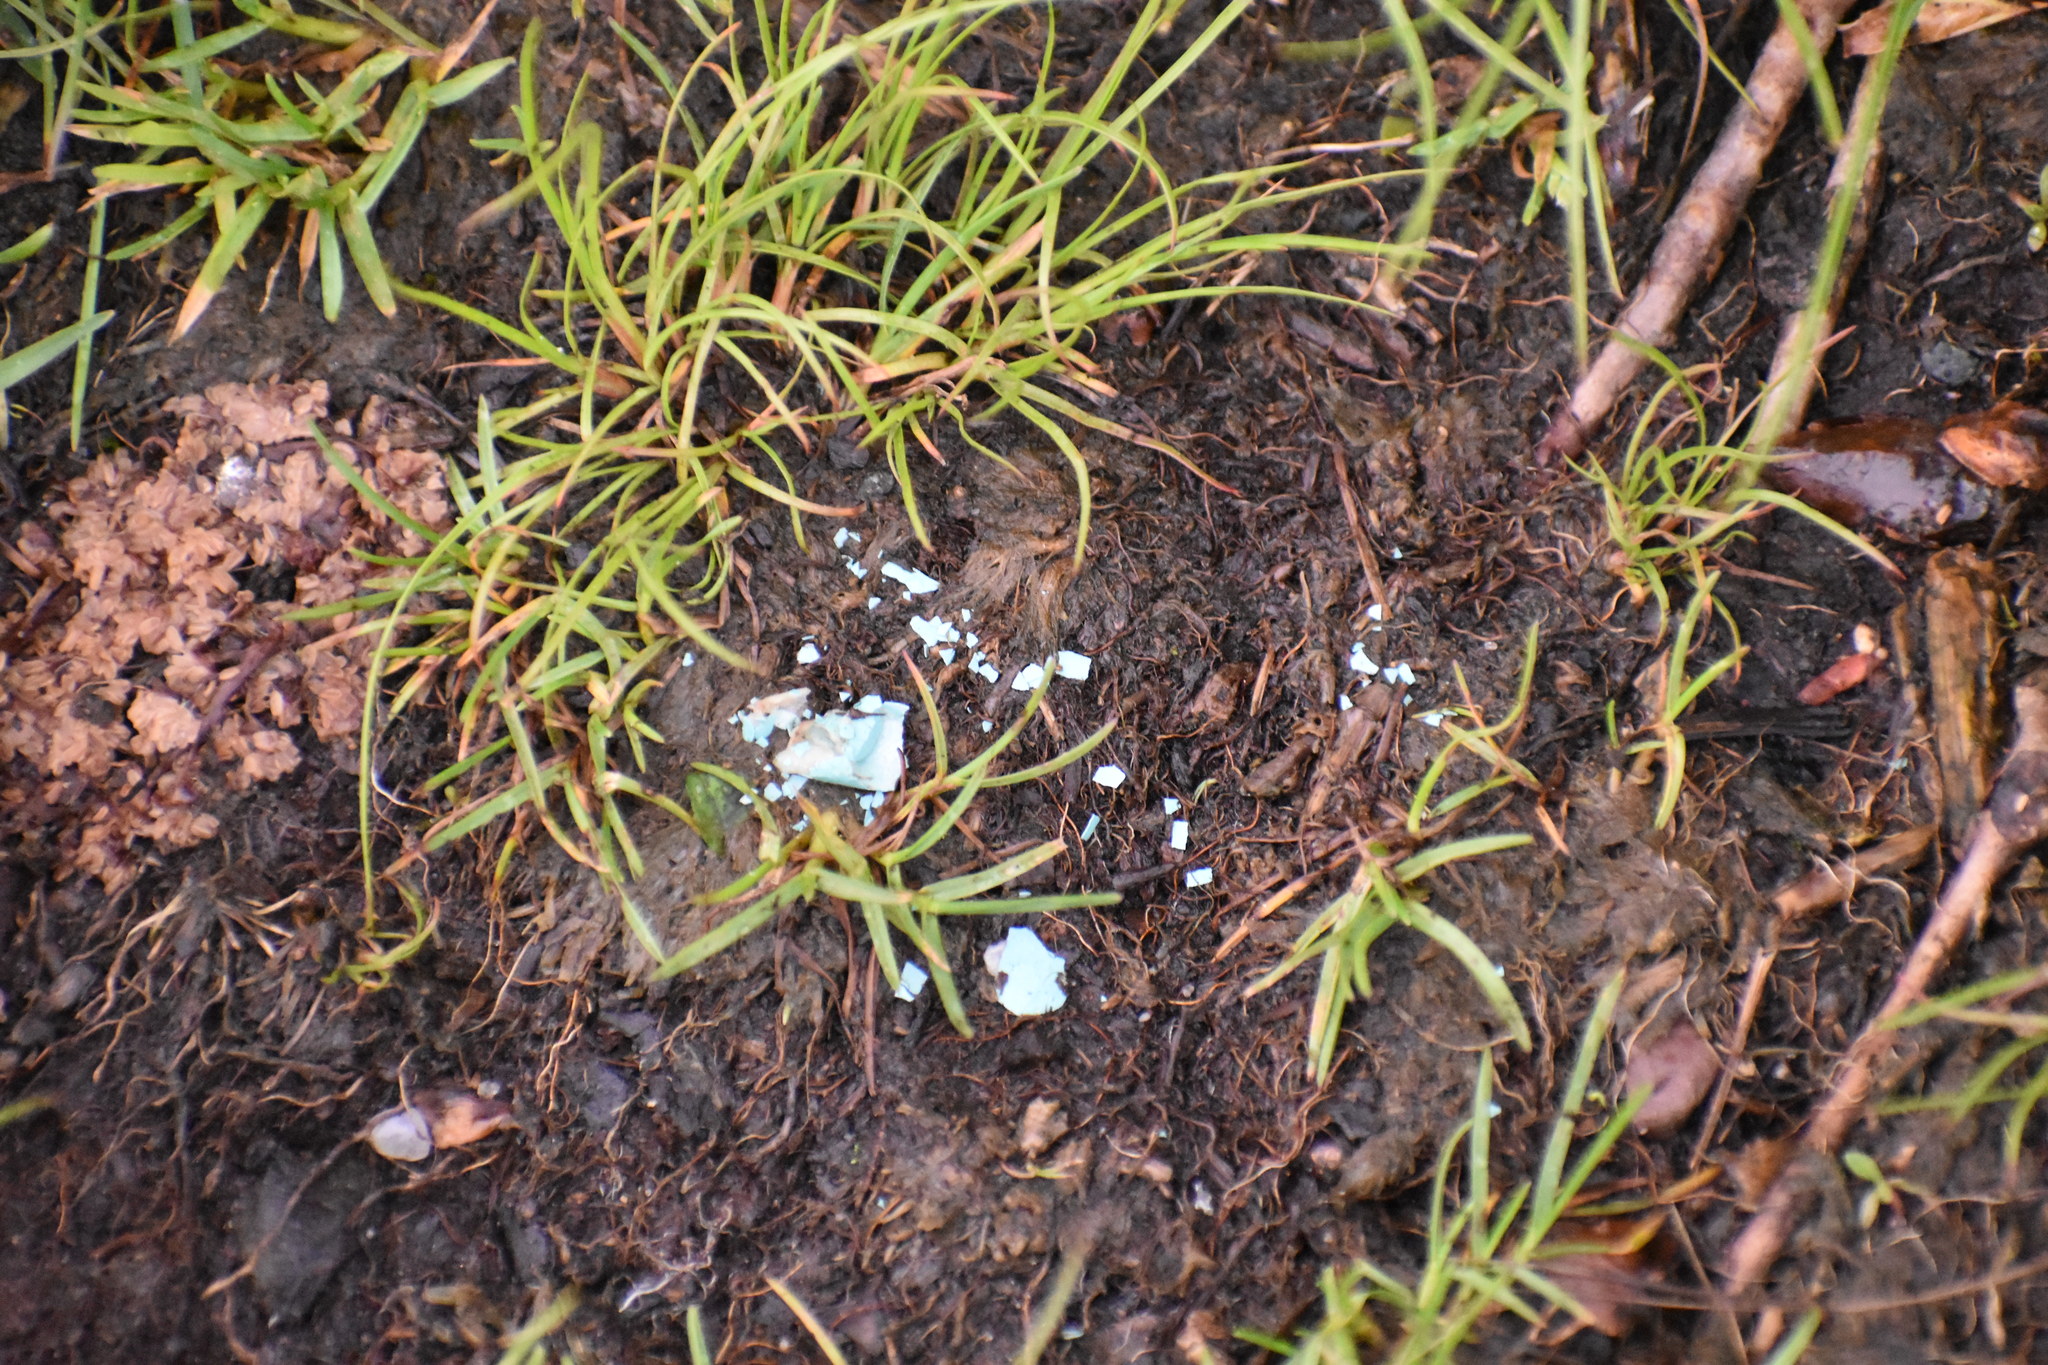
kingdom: Animalia
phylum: Chordata
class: Aves
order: Passeriformes
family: Turdidae
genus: Turdus
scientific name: Turdus migratorius
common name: American robin
